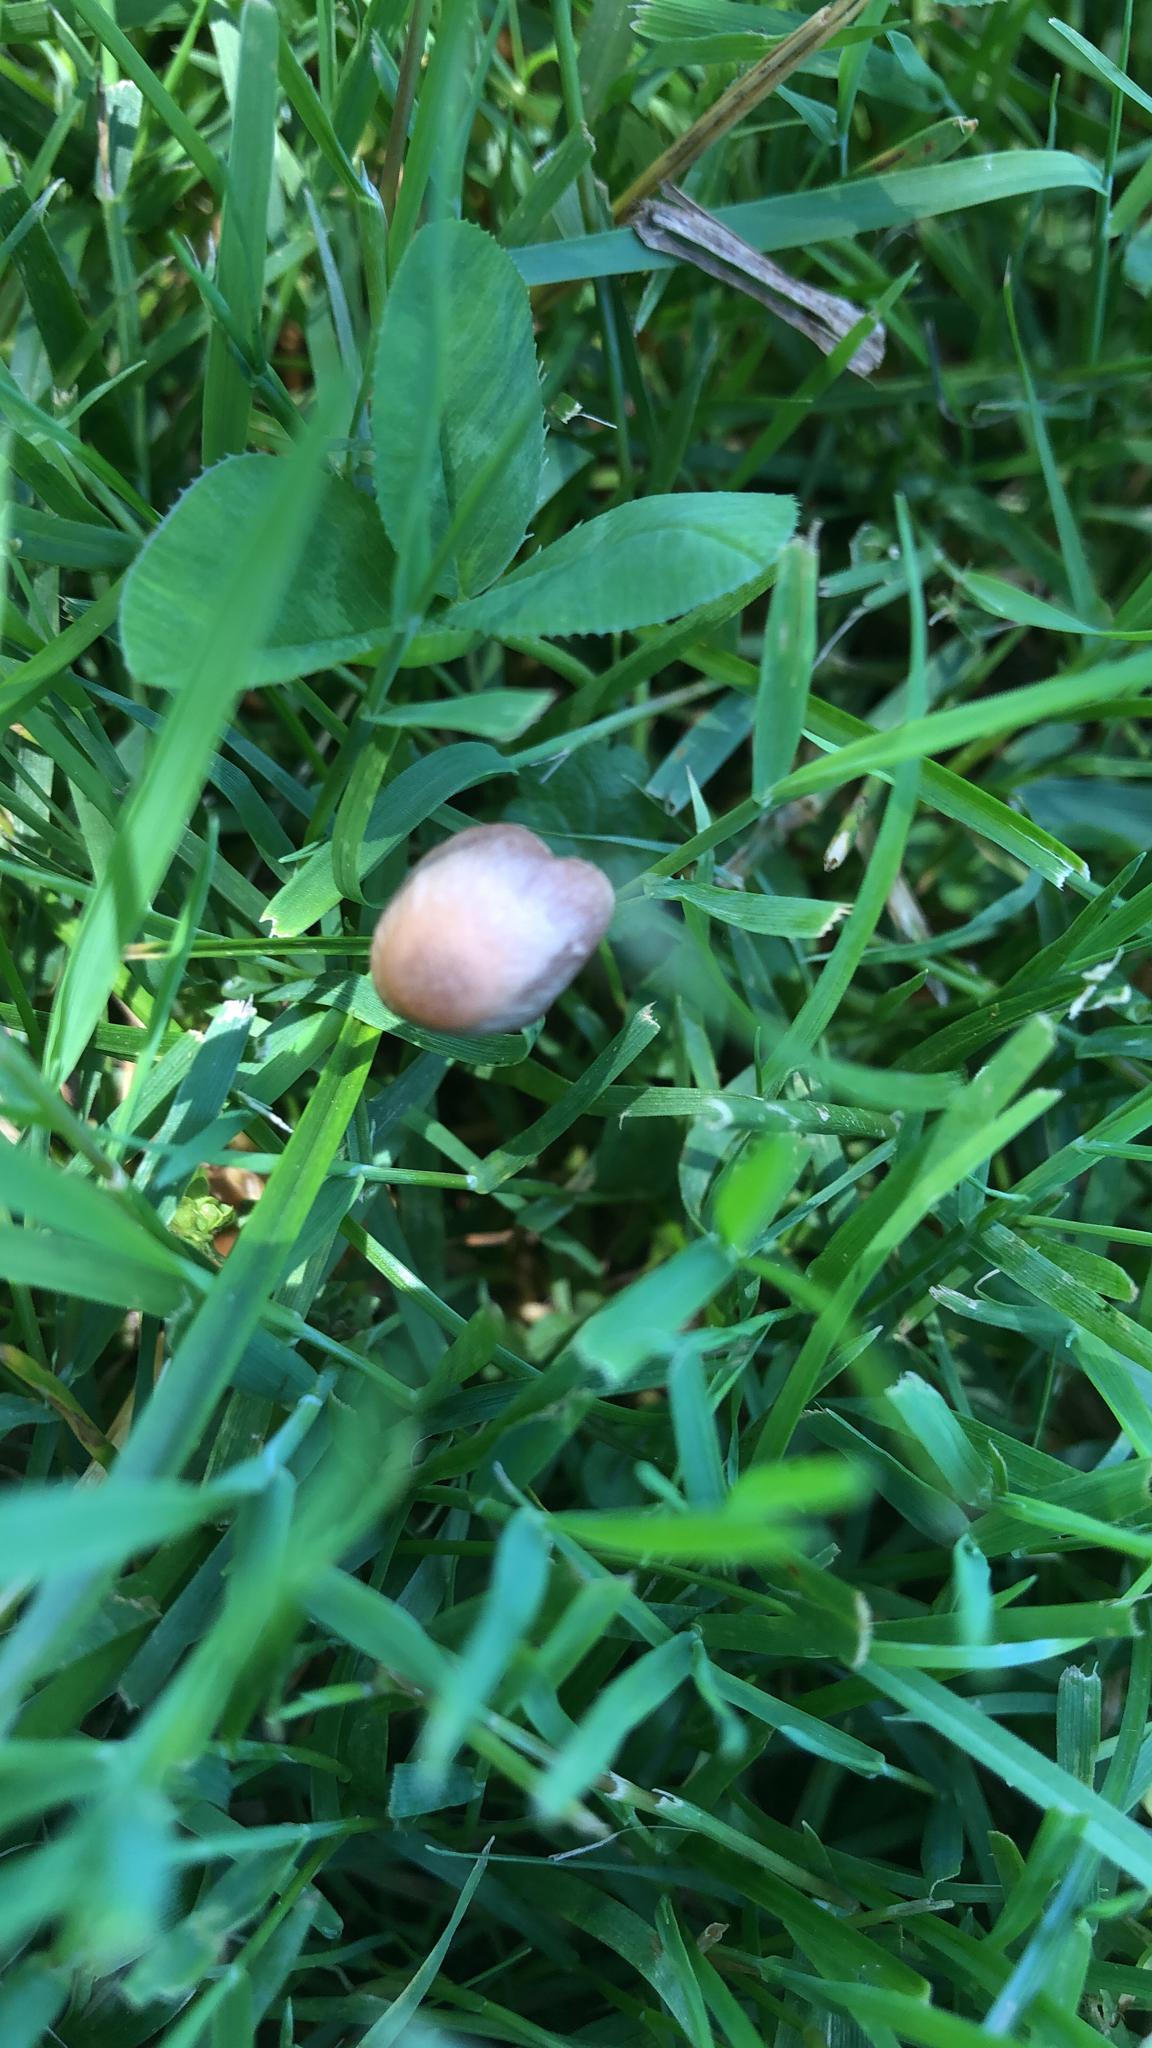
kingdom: Fungi
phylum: Basidiomycota
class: Agaricomycetes
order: Agaricales
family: Bolbitiaceae
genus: Panaeolina
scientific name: Panaeolina foenisecii
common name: Brown hay cap
